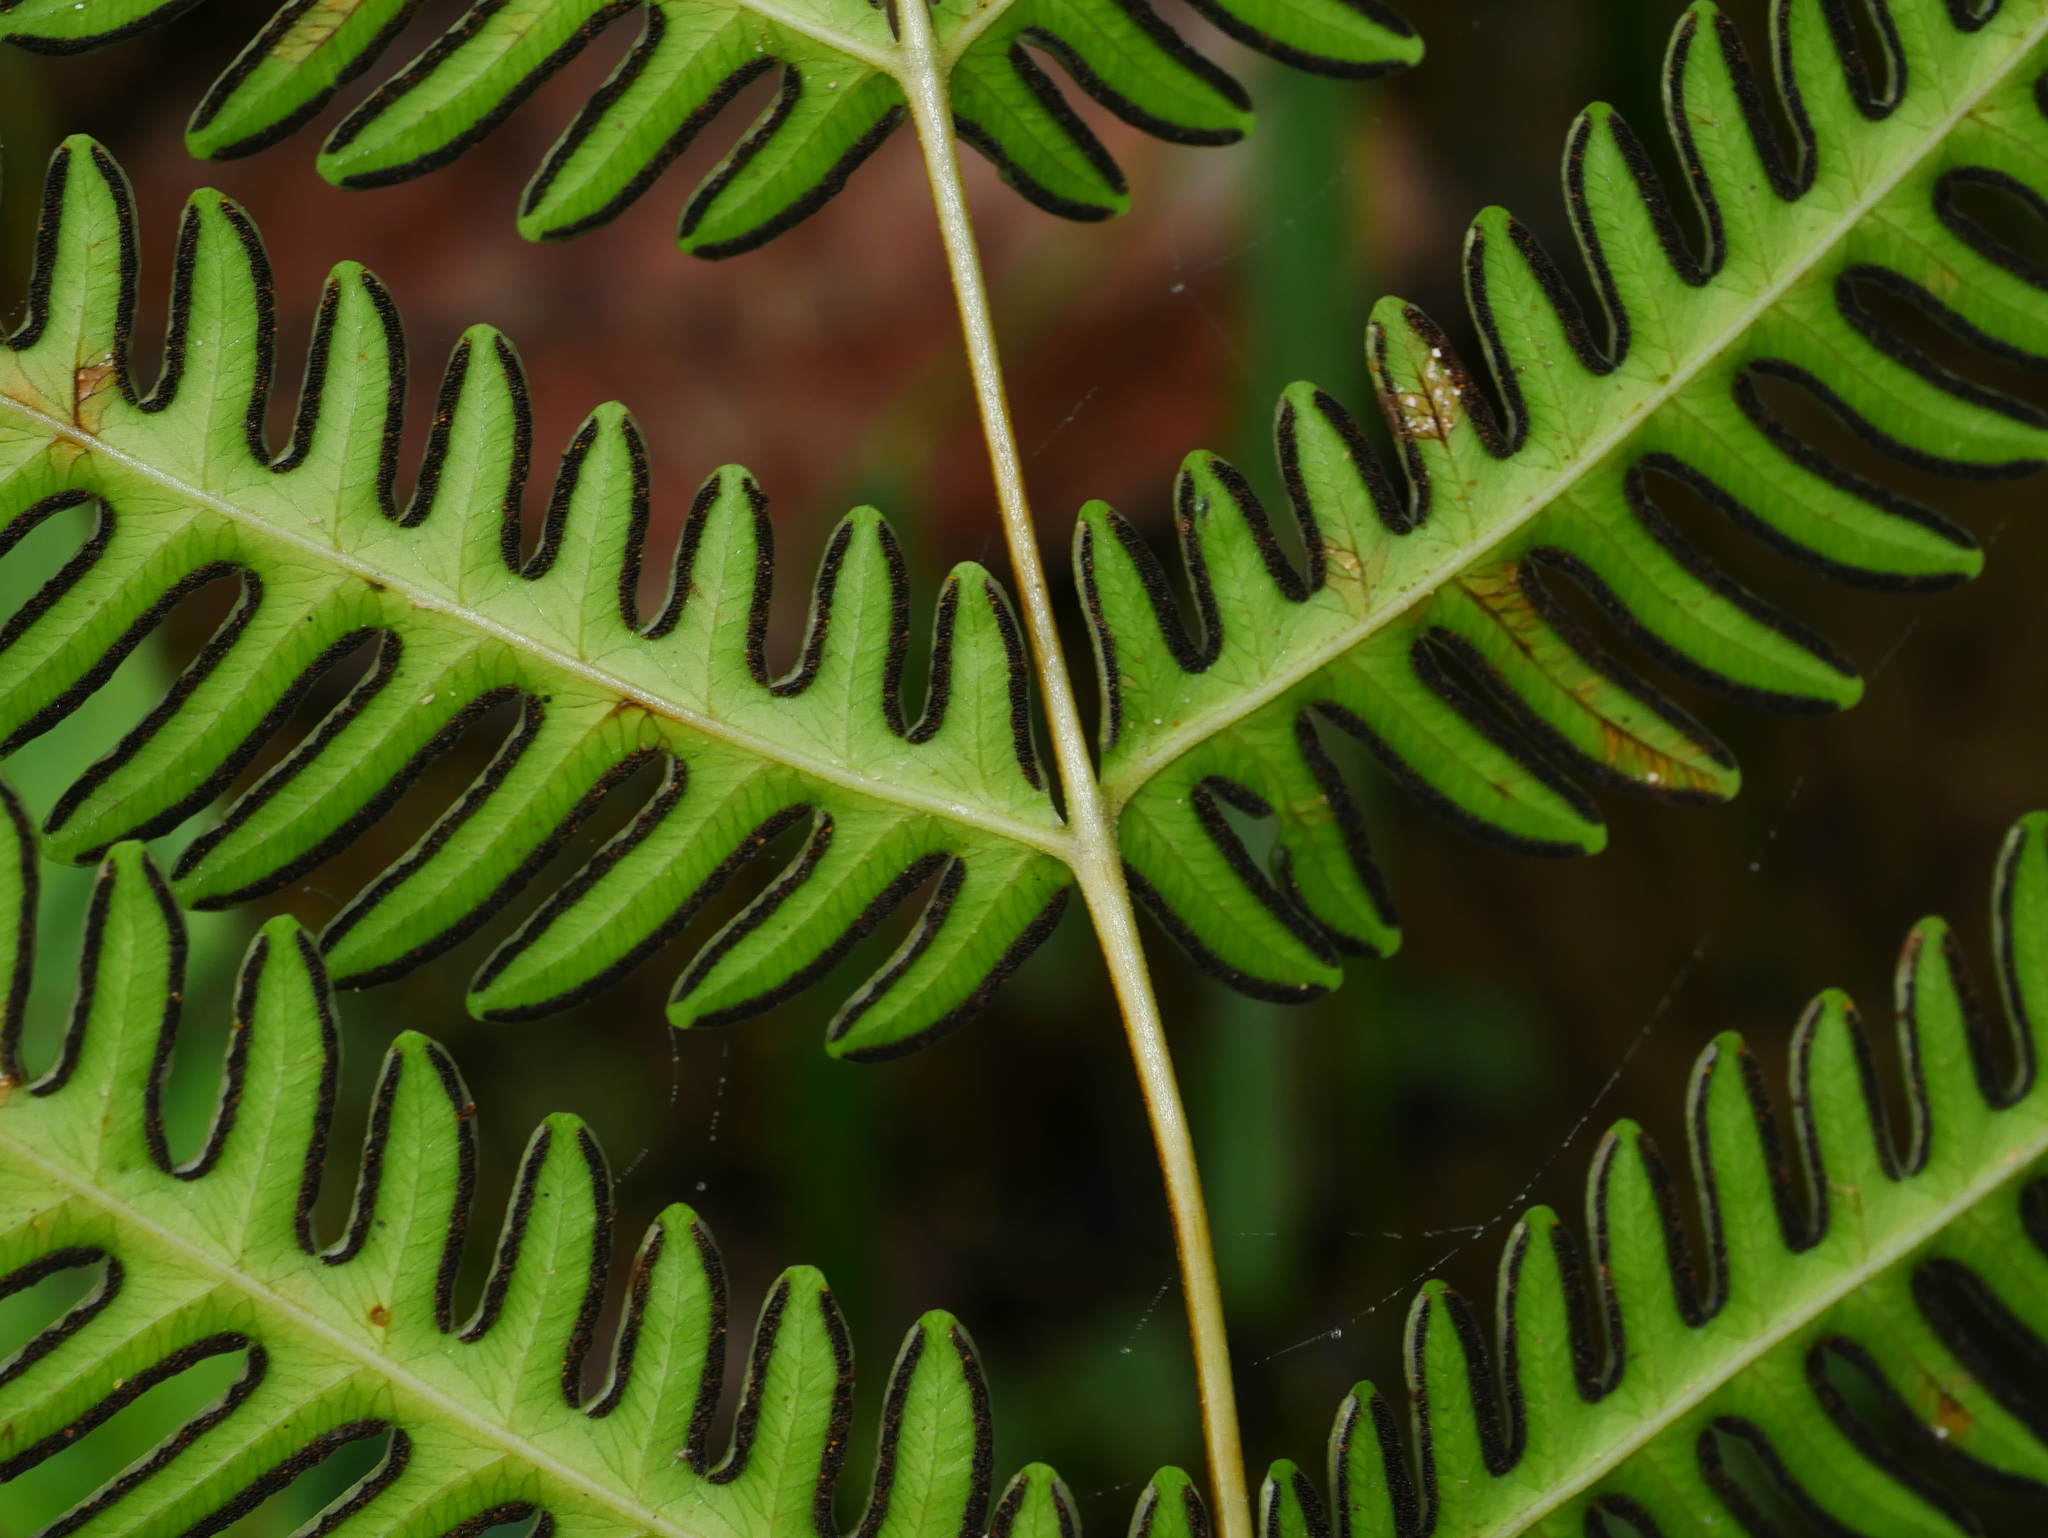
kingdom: Plantae
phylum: Tracheophyta
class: Polypodiopsida
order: Polypodiales
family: Pteridaceae
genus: Pteris
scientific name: Pteris biaurita
